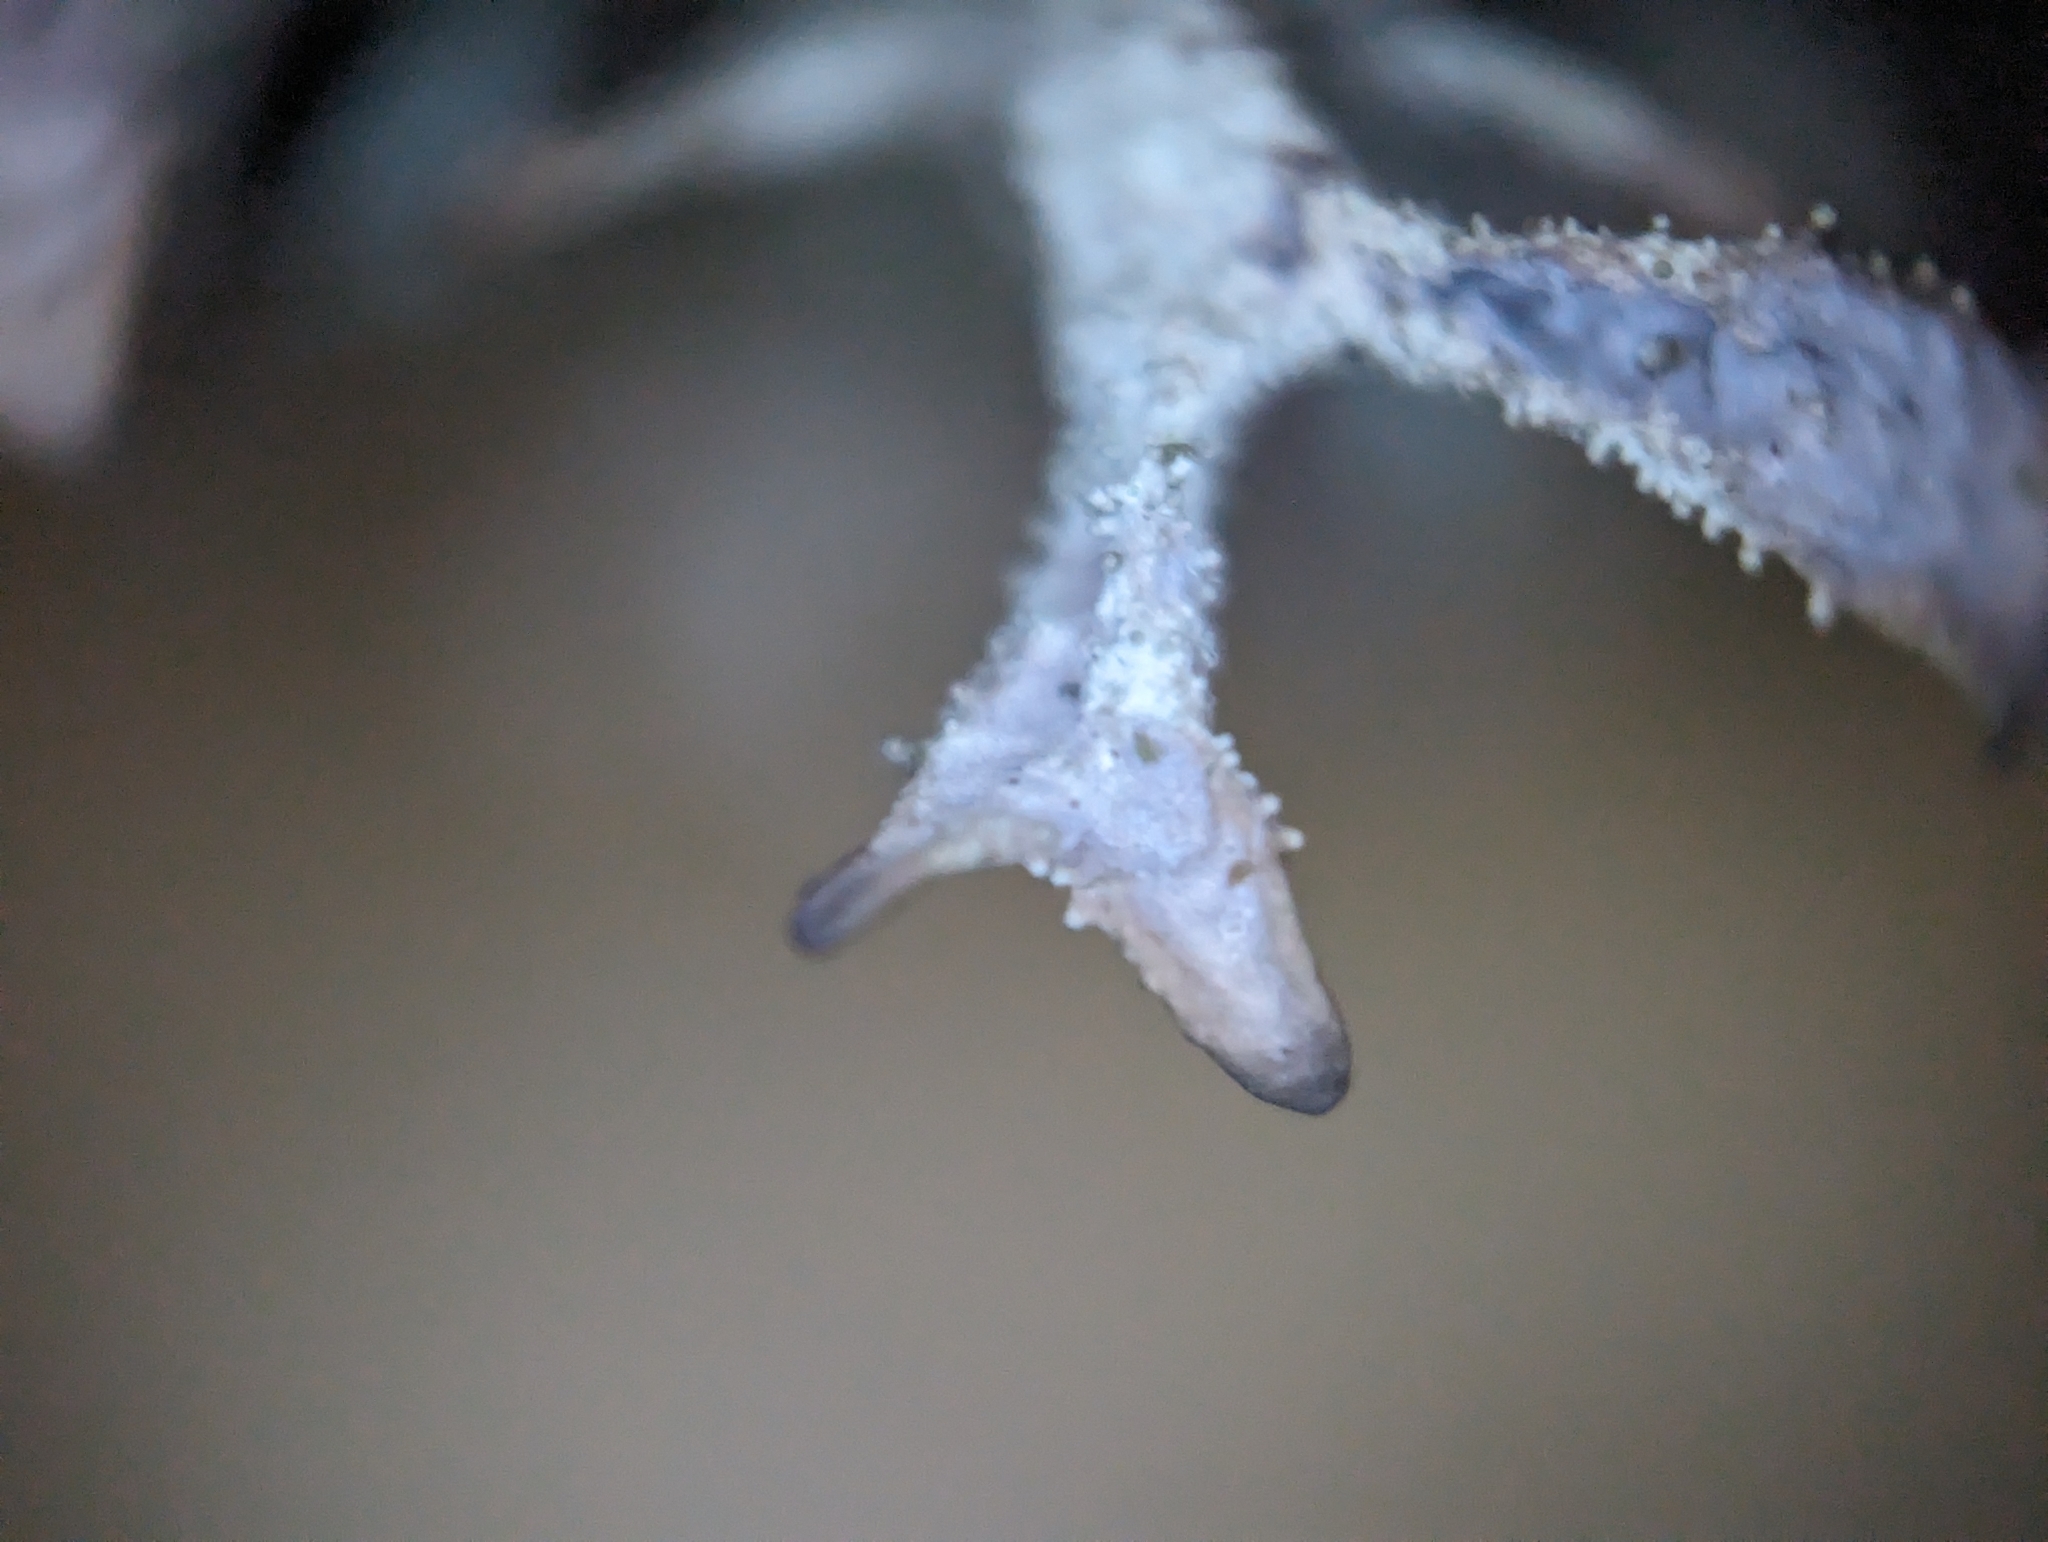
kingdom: Fungi
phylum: Ascomycota
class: Lecanoromycetes
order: Lecanorales
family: Parmeliaceae
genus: Pseudevernia
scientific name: Pseudevernia furfuracea
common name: Tree moss
